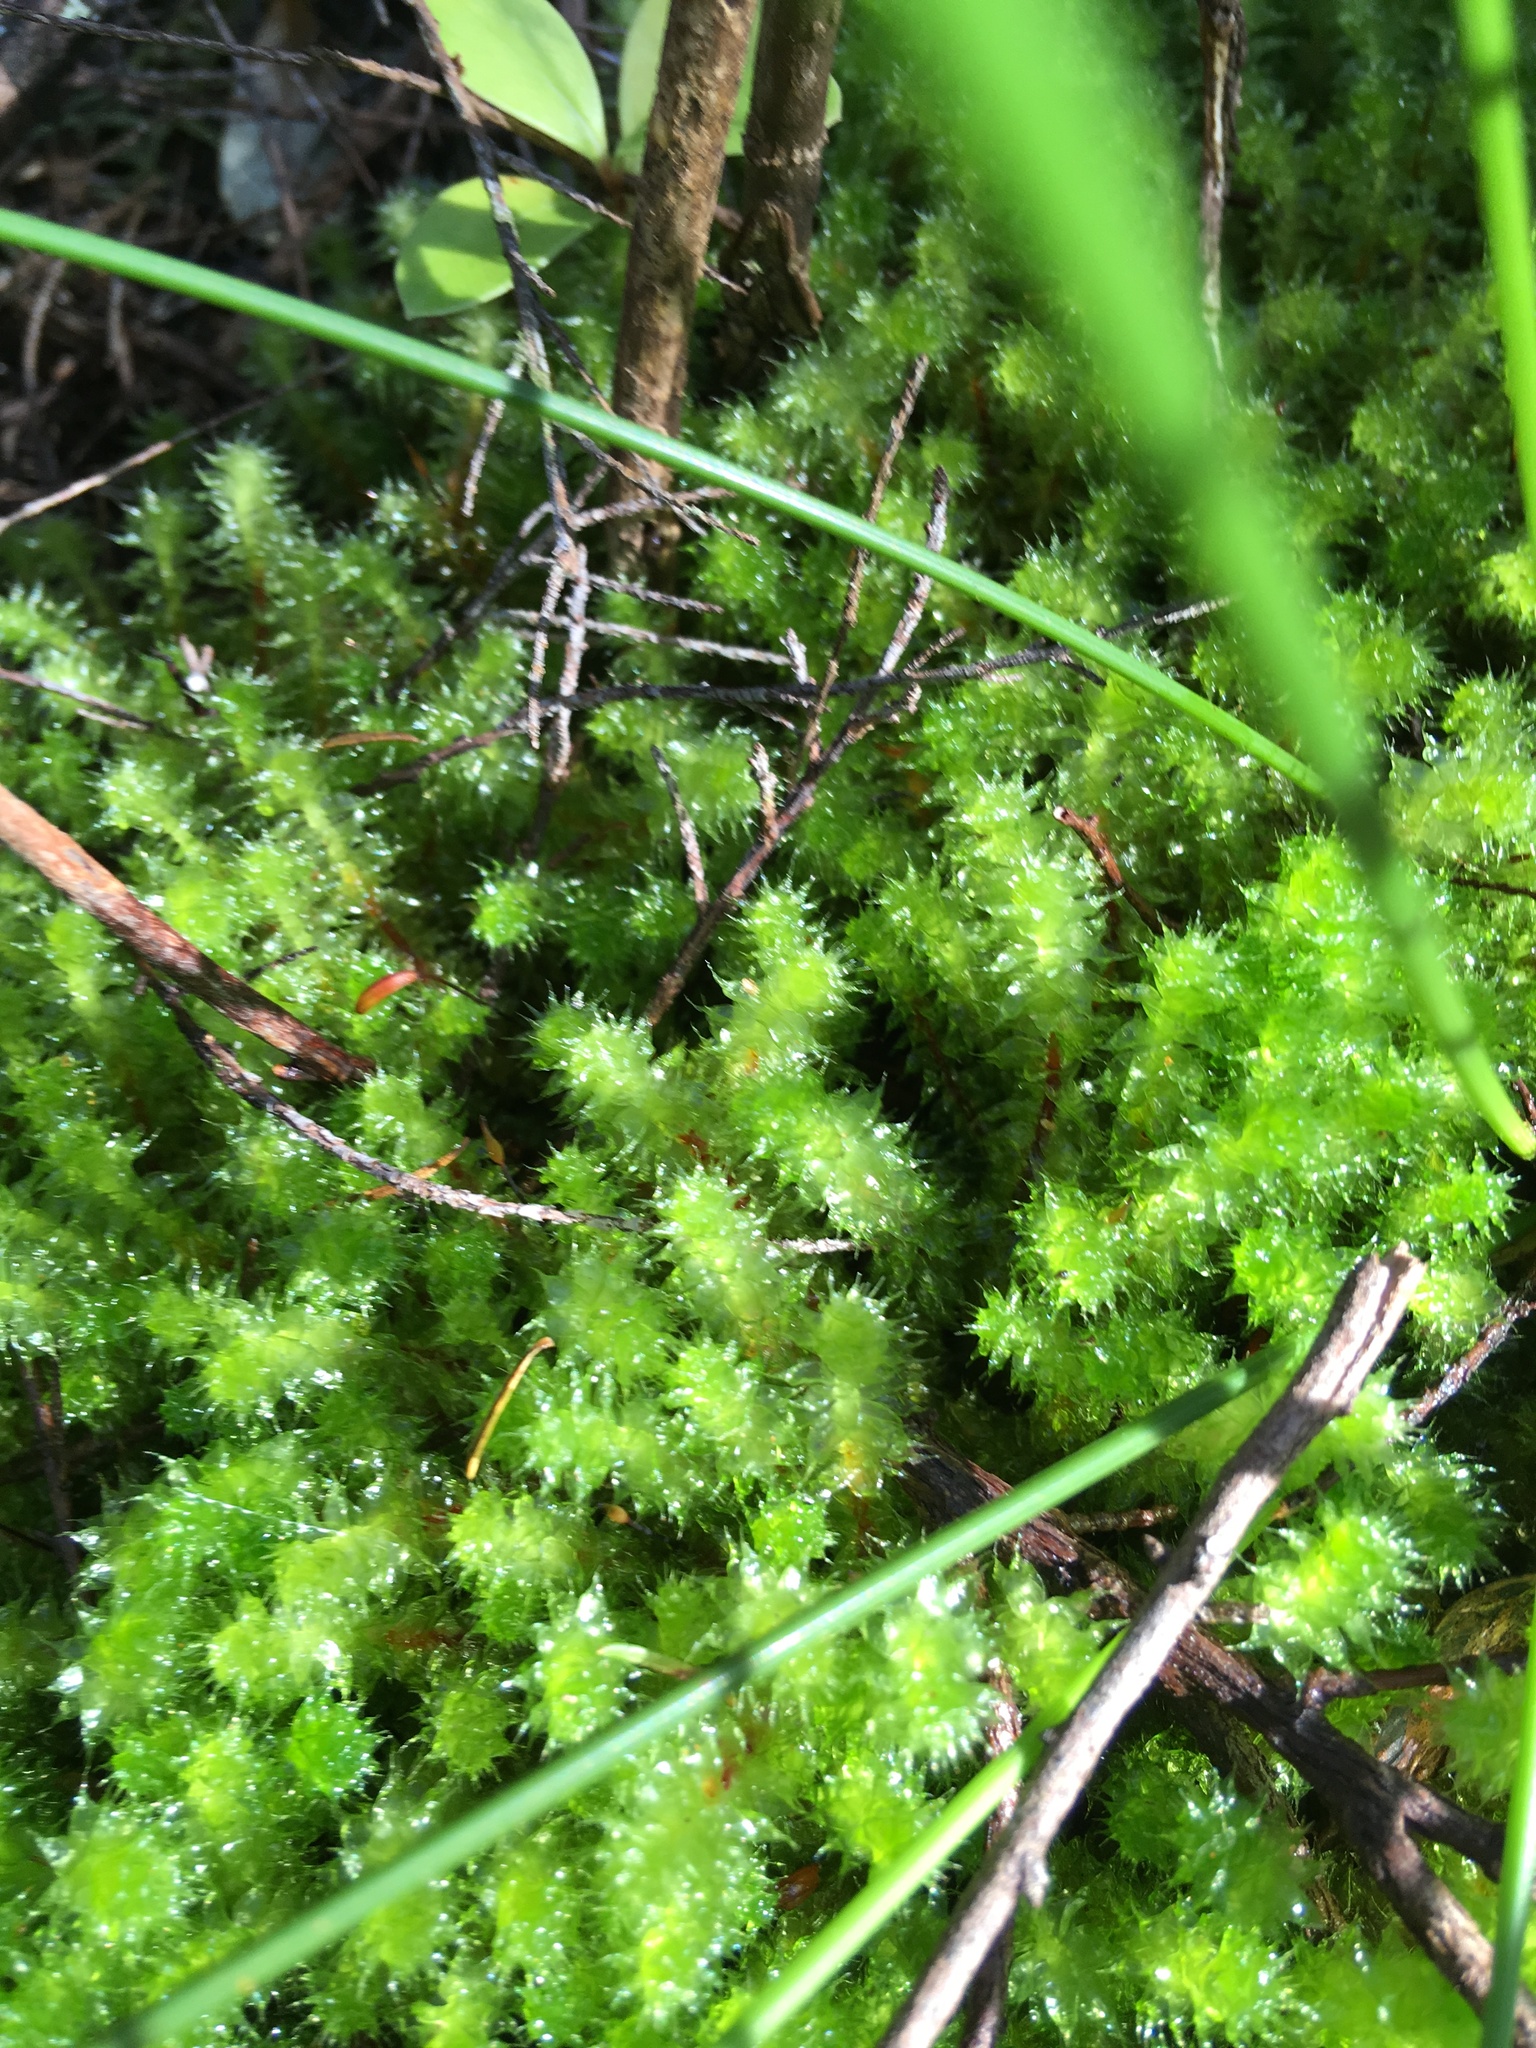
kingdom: Plantae
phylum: Bryophyta
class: Bryopsida
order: Ptychomniales
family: Ptychomniaceae
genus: Ptychomnion
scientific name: Ptychomnion aciculare
